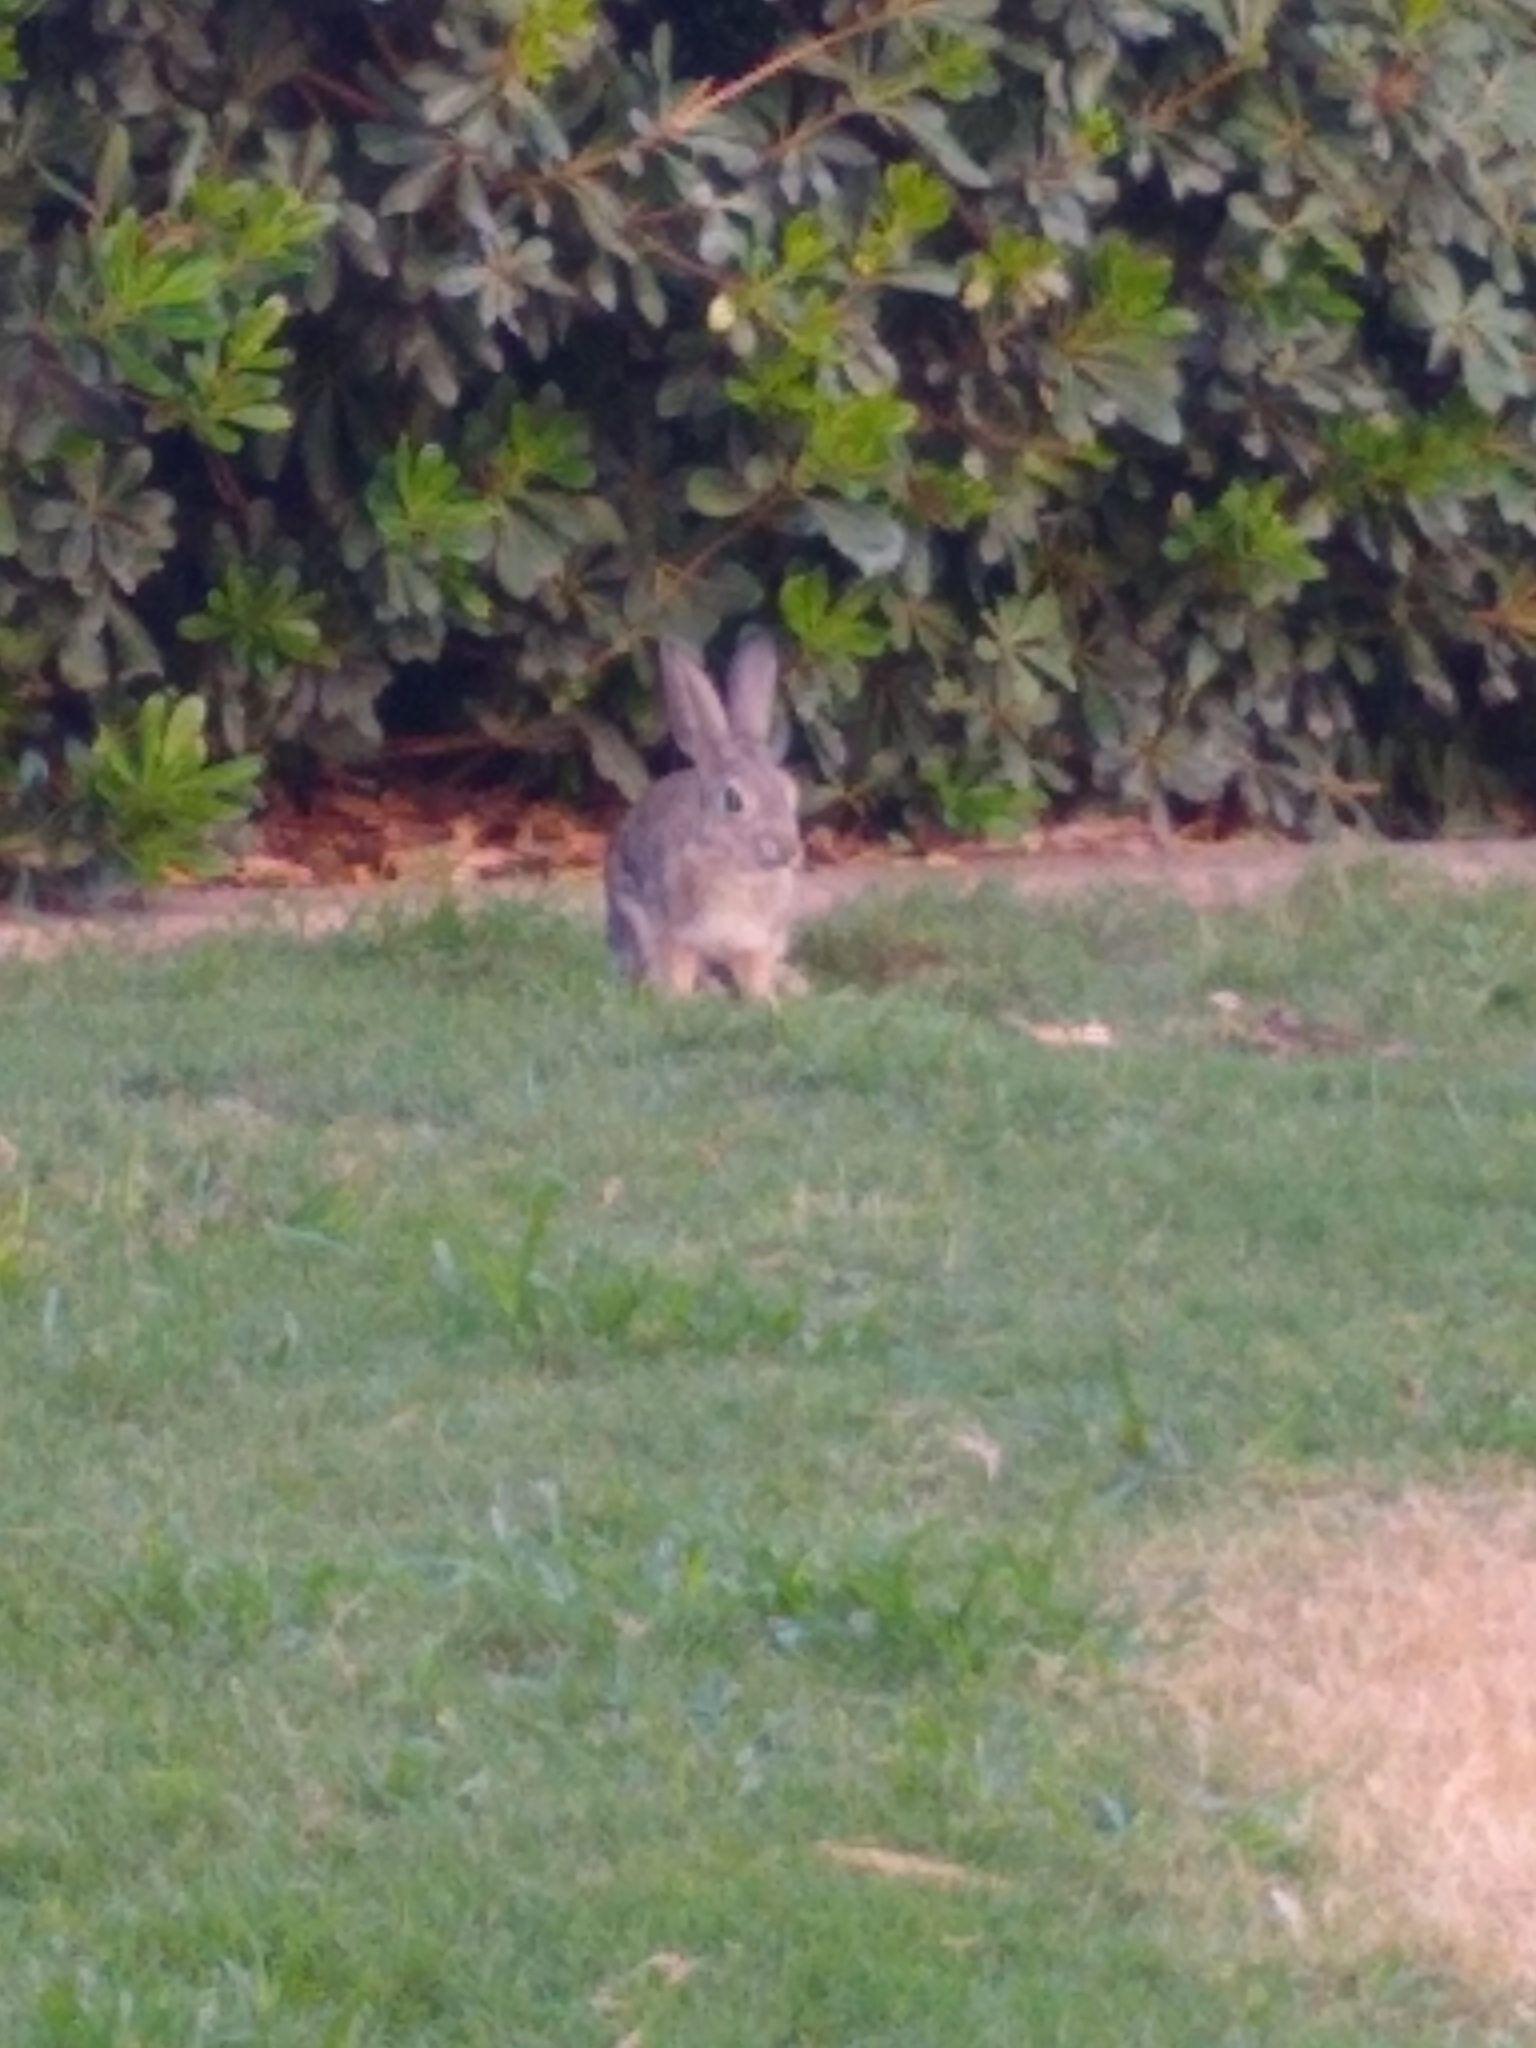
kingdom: Animalia
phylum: Chordata
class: Mammalia
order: Lagomorpha
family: Leporidae
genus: Sylvilagus
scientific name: Sylvilagus audubonii
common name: Desert cottontail
